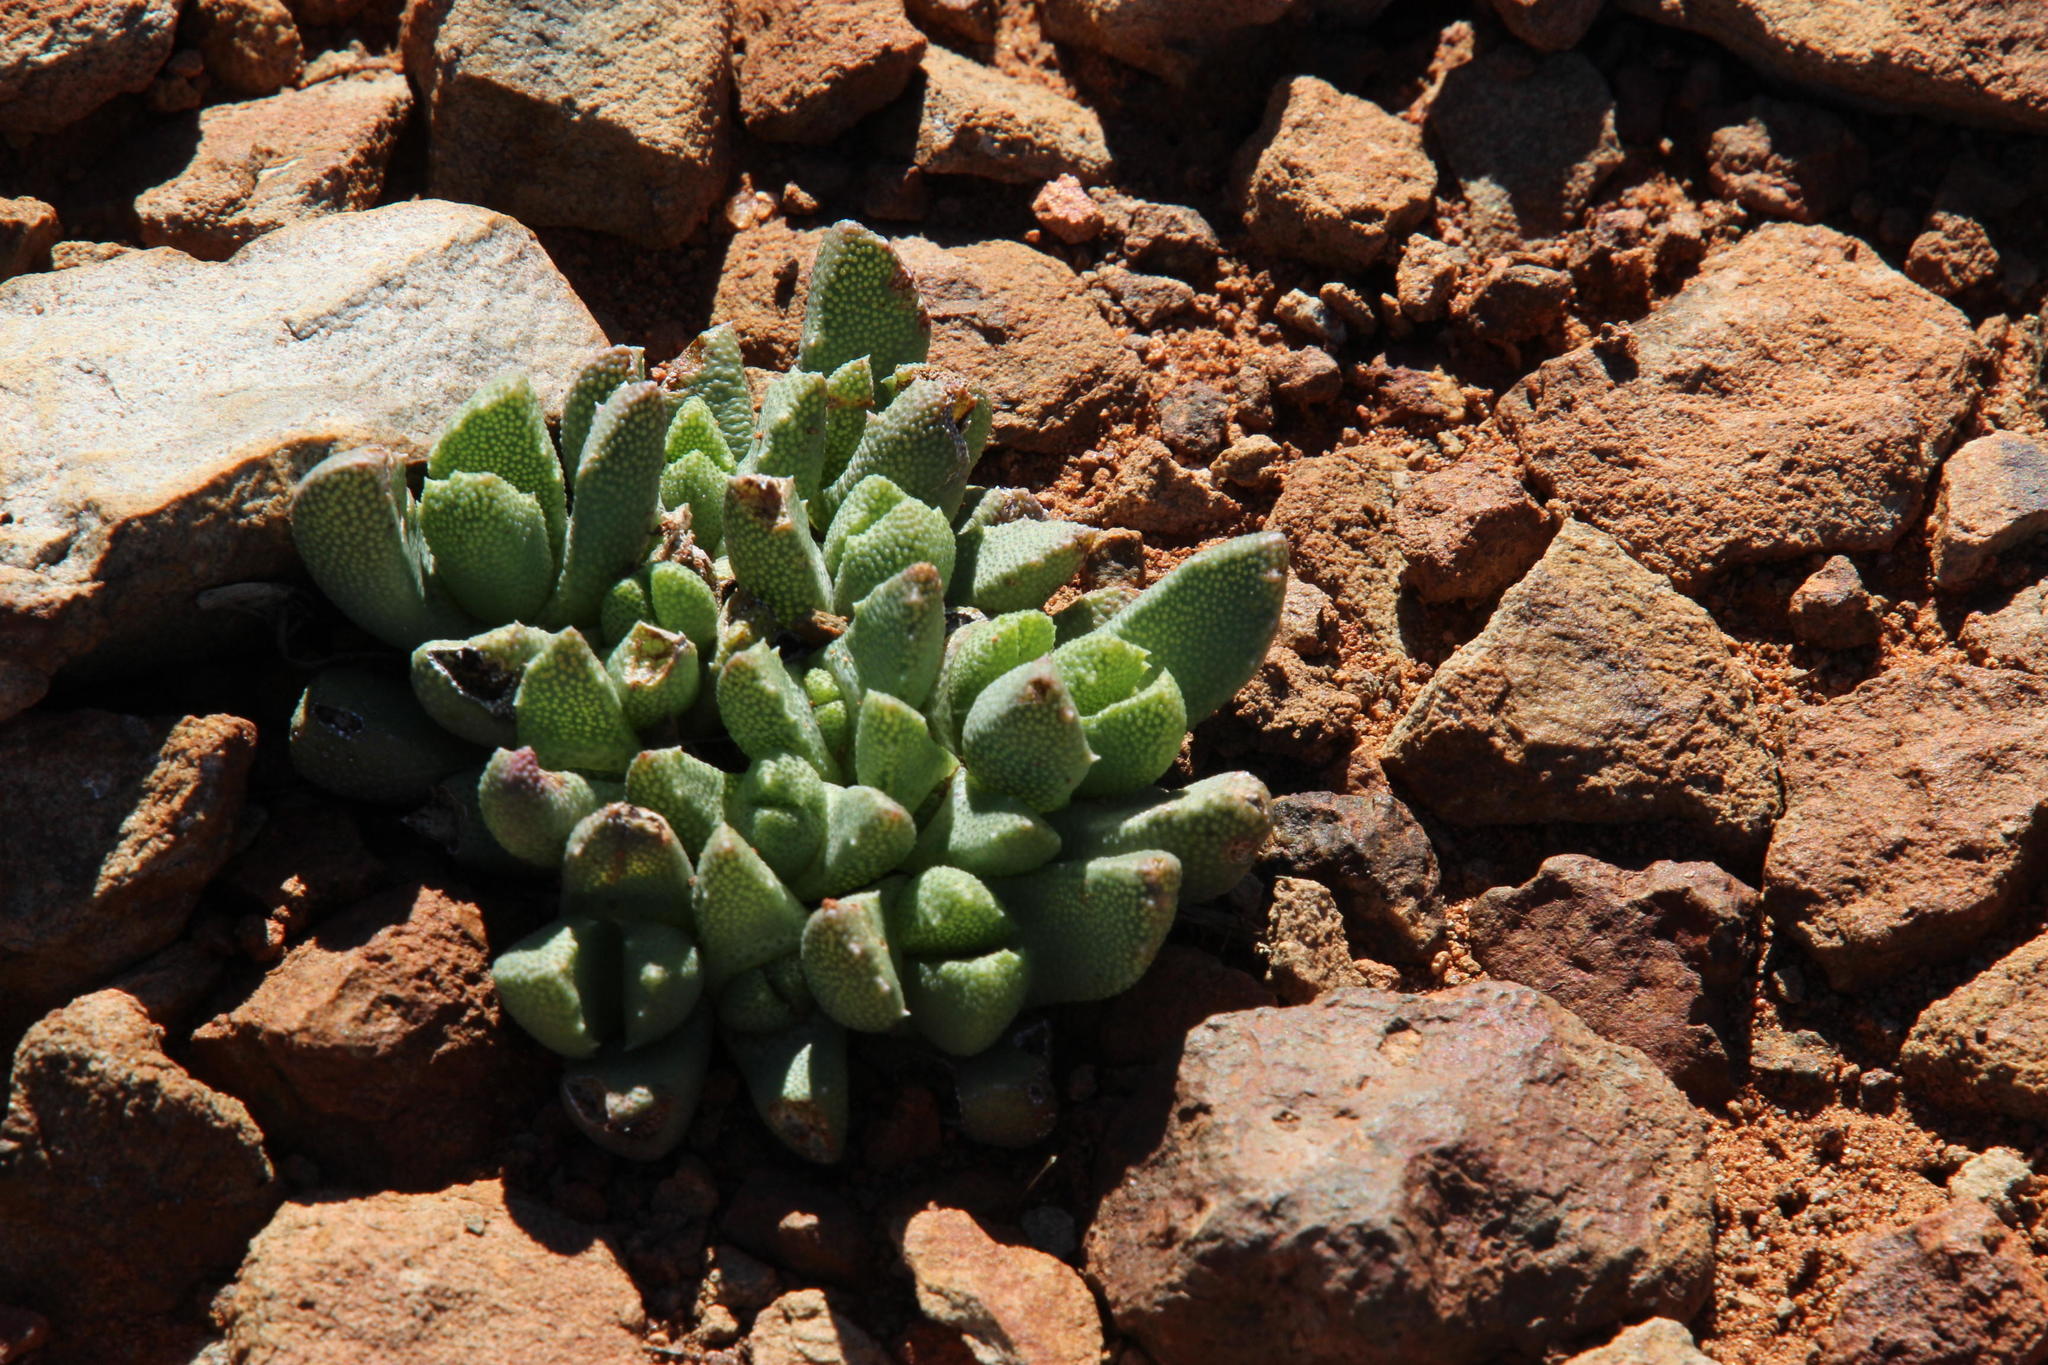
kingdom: Plantae
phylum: Tracheophyta
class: Magnoliopsida
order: Caryophyllales
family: Aizoaceae
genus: Stomatium
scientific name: Stomatium bolusiae
